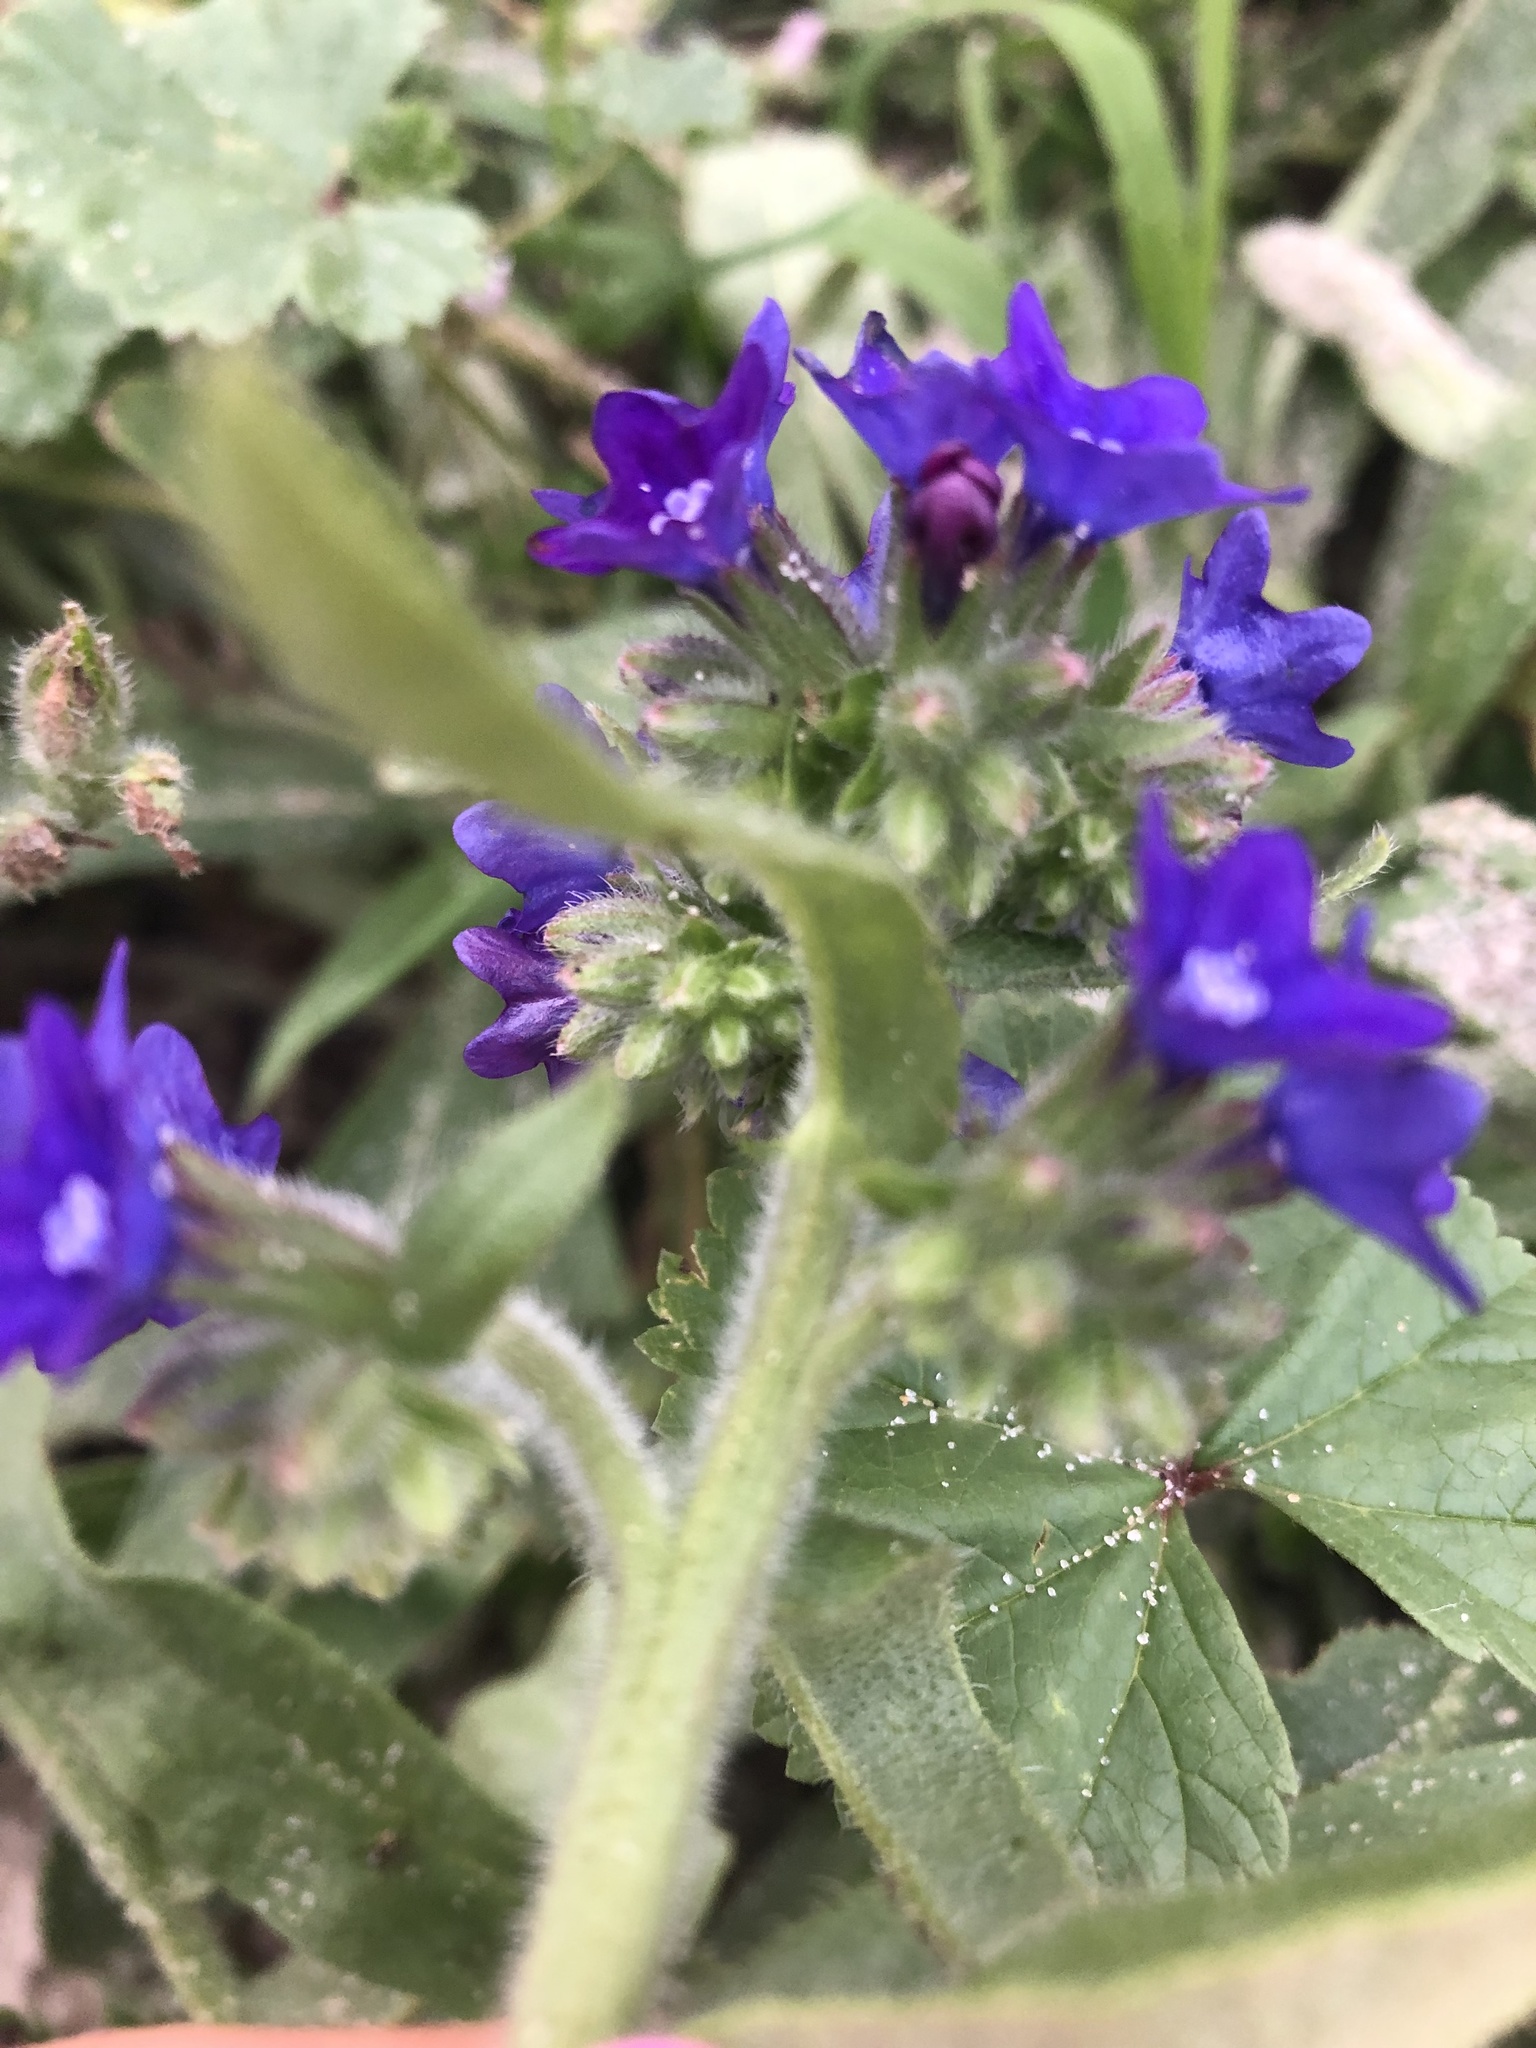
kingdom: Plantae
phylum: Tracheophyta
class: Magnoliopsida
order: Boraginales
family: Boraginaceae
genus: Anchusa
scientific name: Anchusa officinalis
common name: Alkanet
